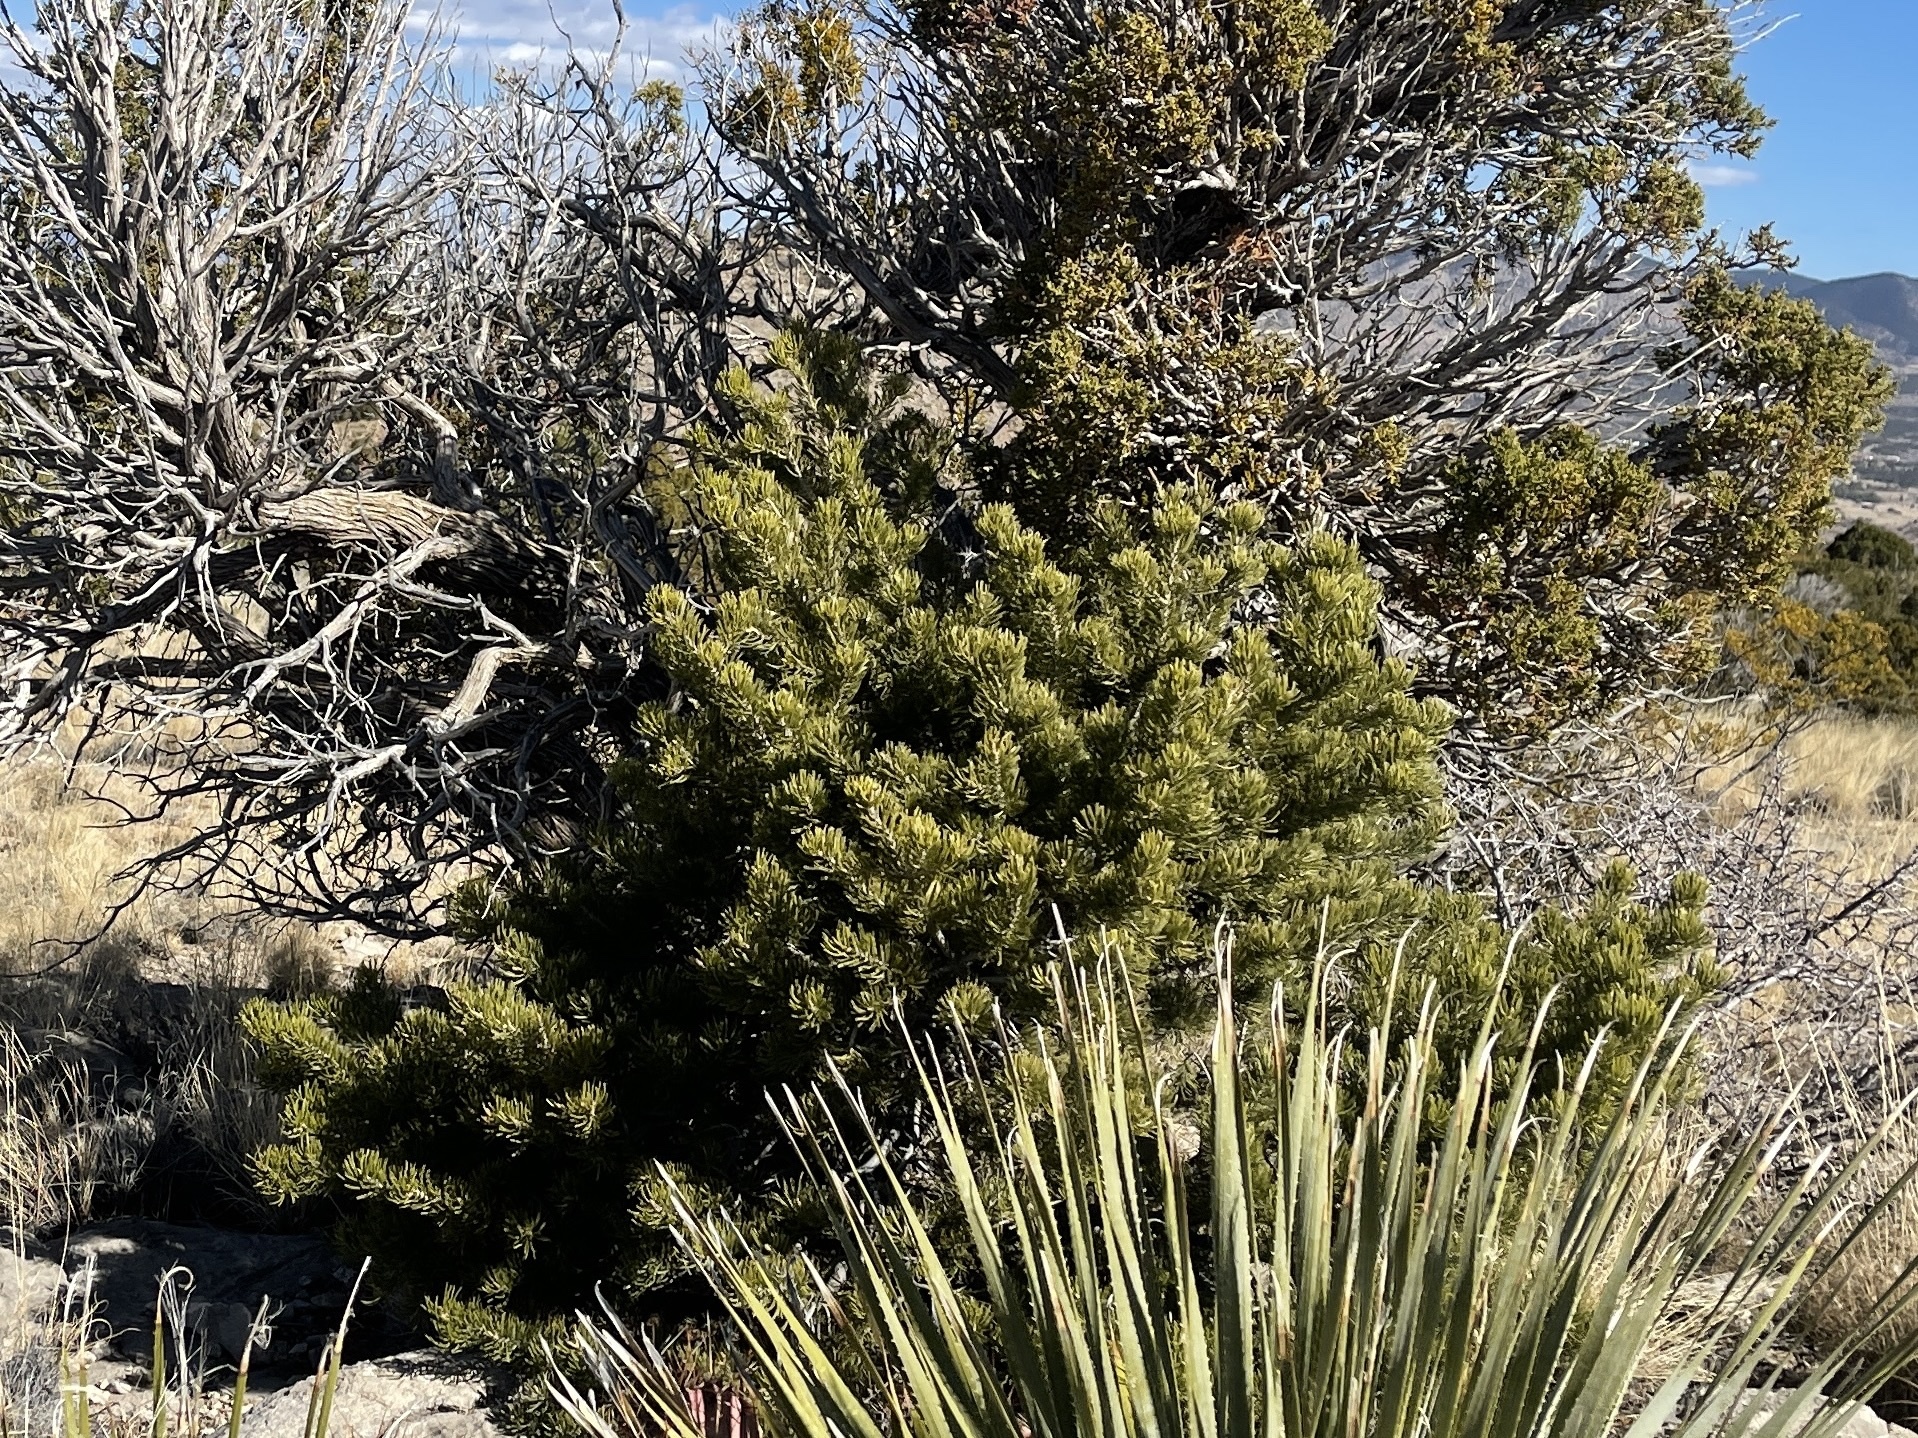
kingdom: Plantae
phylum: Tracheophyta
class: Pinopsida
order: Pinales
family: Pinaceae
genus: Pinus
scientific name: Pinus edulis
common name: Colorado pinyon
